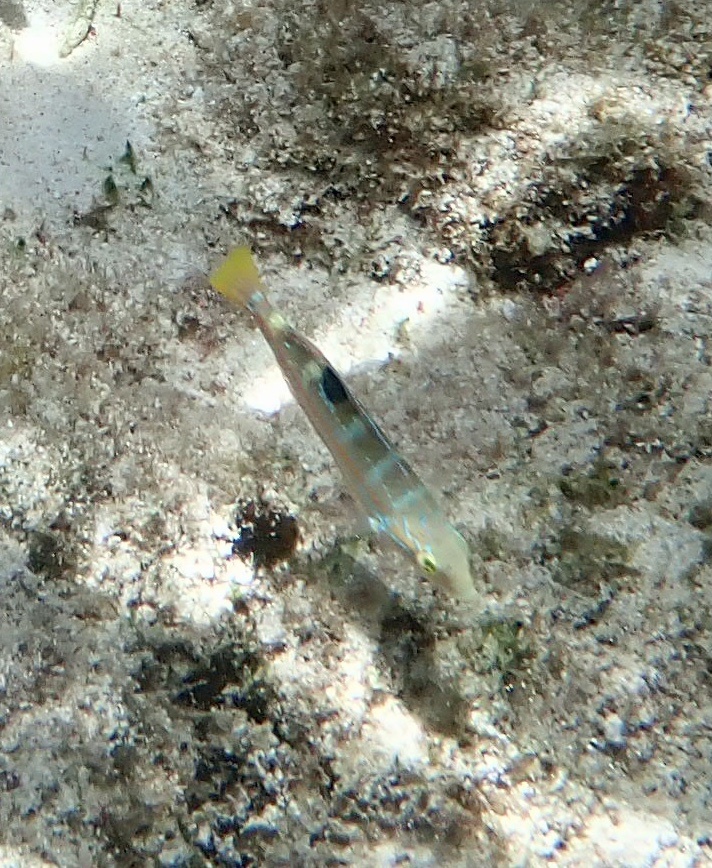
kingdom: Animalia
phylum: Chordata
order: Perciformes
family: Labridae
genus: Halichoeres
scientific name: Halichoeres radiatus
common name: Puddingwife
